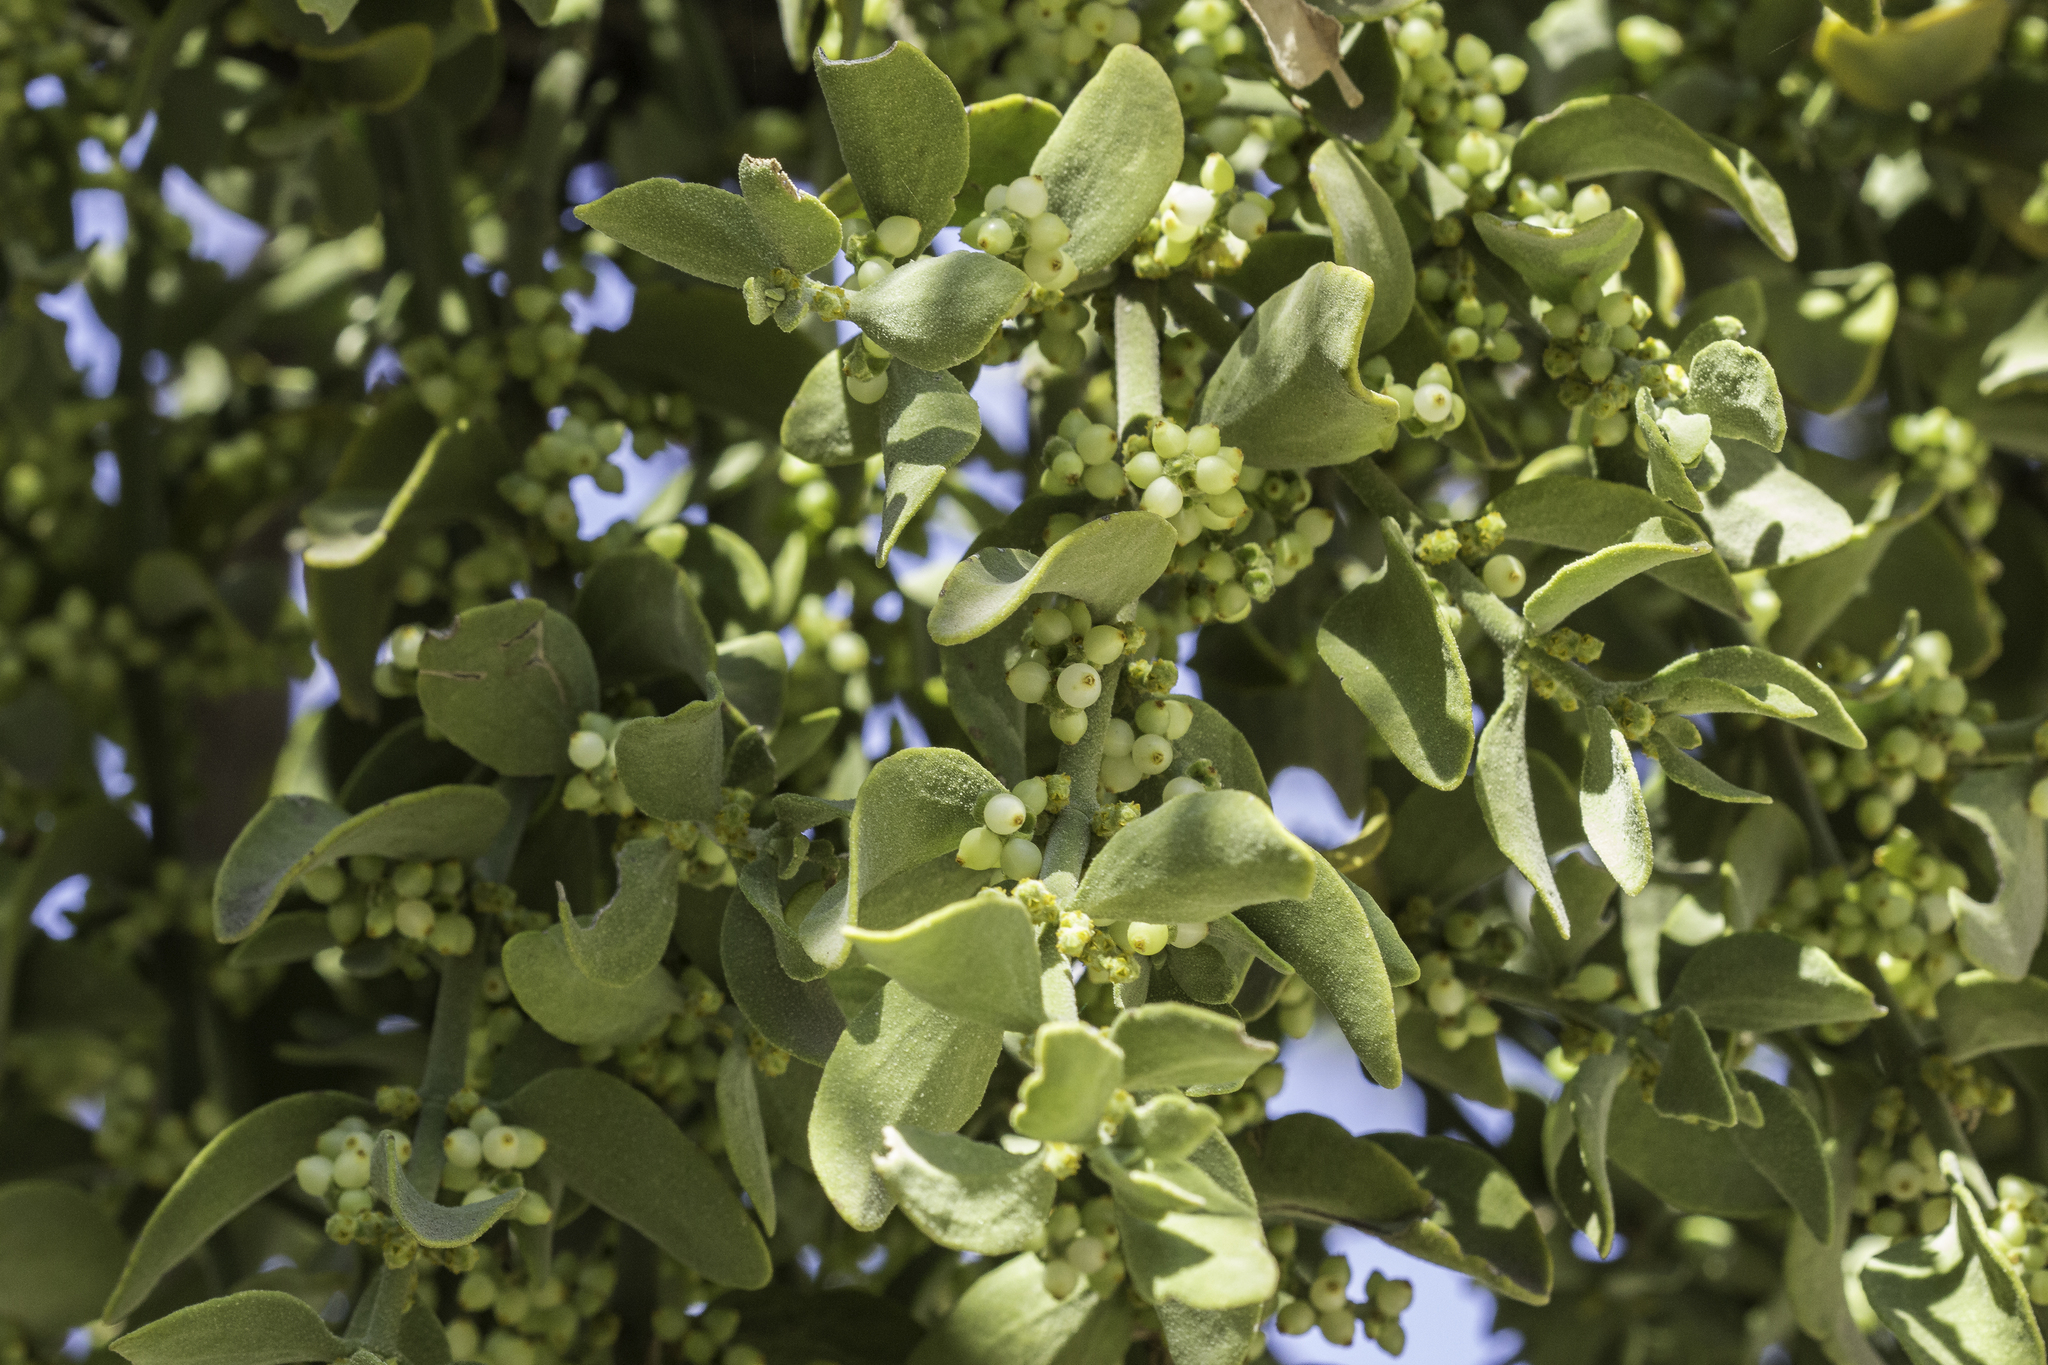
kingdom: Plantae
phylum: Tracheophyta
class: Magnoliopsida
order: Santalales
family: Viscaceae
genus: Phoradendron
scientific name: Phoradendron leucarpum
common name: Pacific mistletoe
